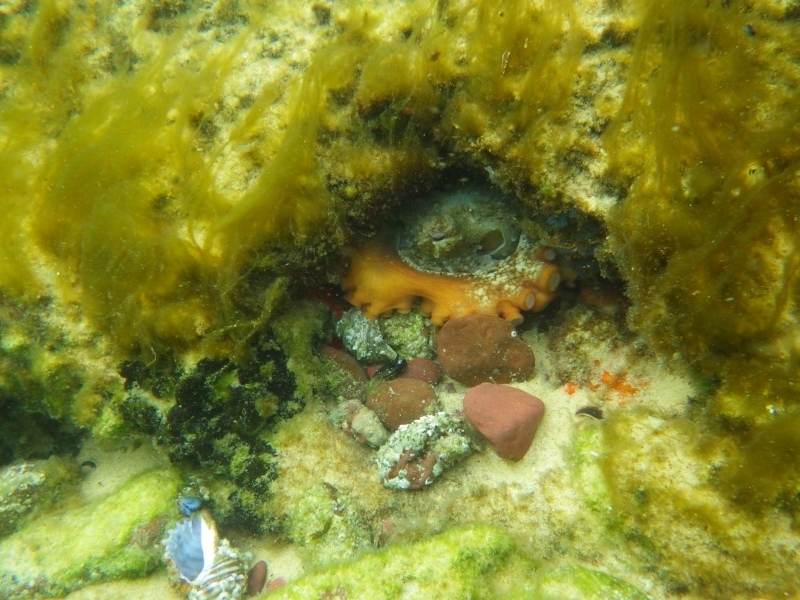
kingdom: Animalia
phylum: Chordata
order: Perciformes
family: Mullidae
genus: Upeneichthys
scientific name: Upeneichthys lineatus
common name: Red mullet
